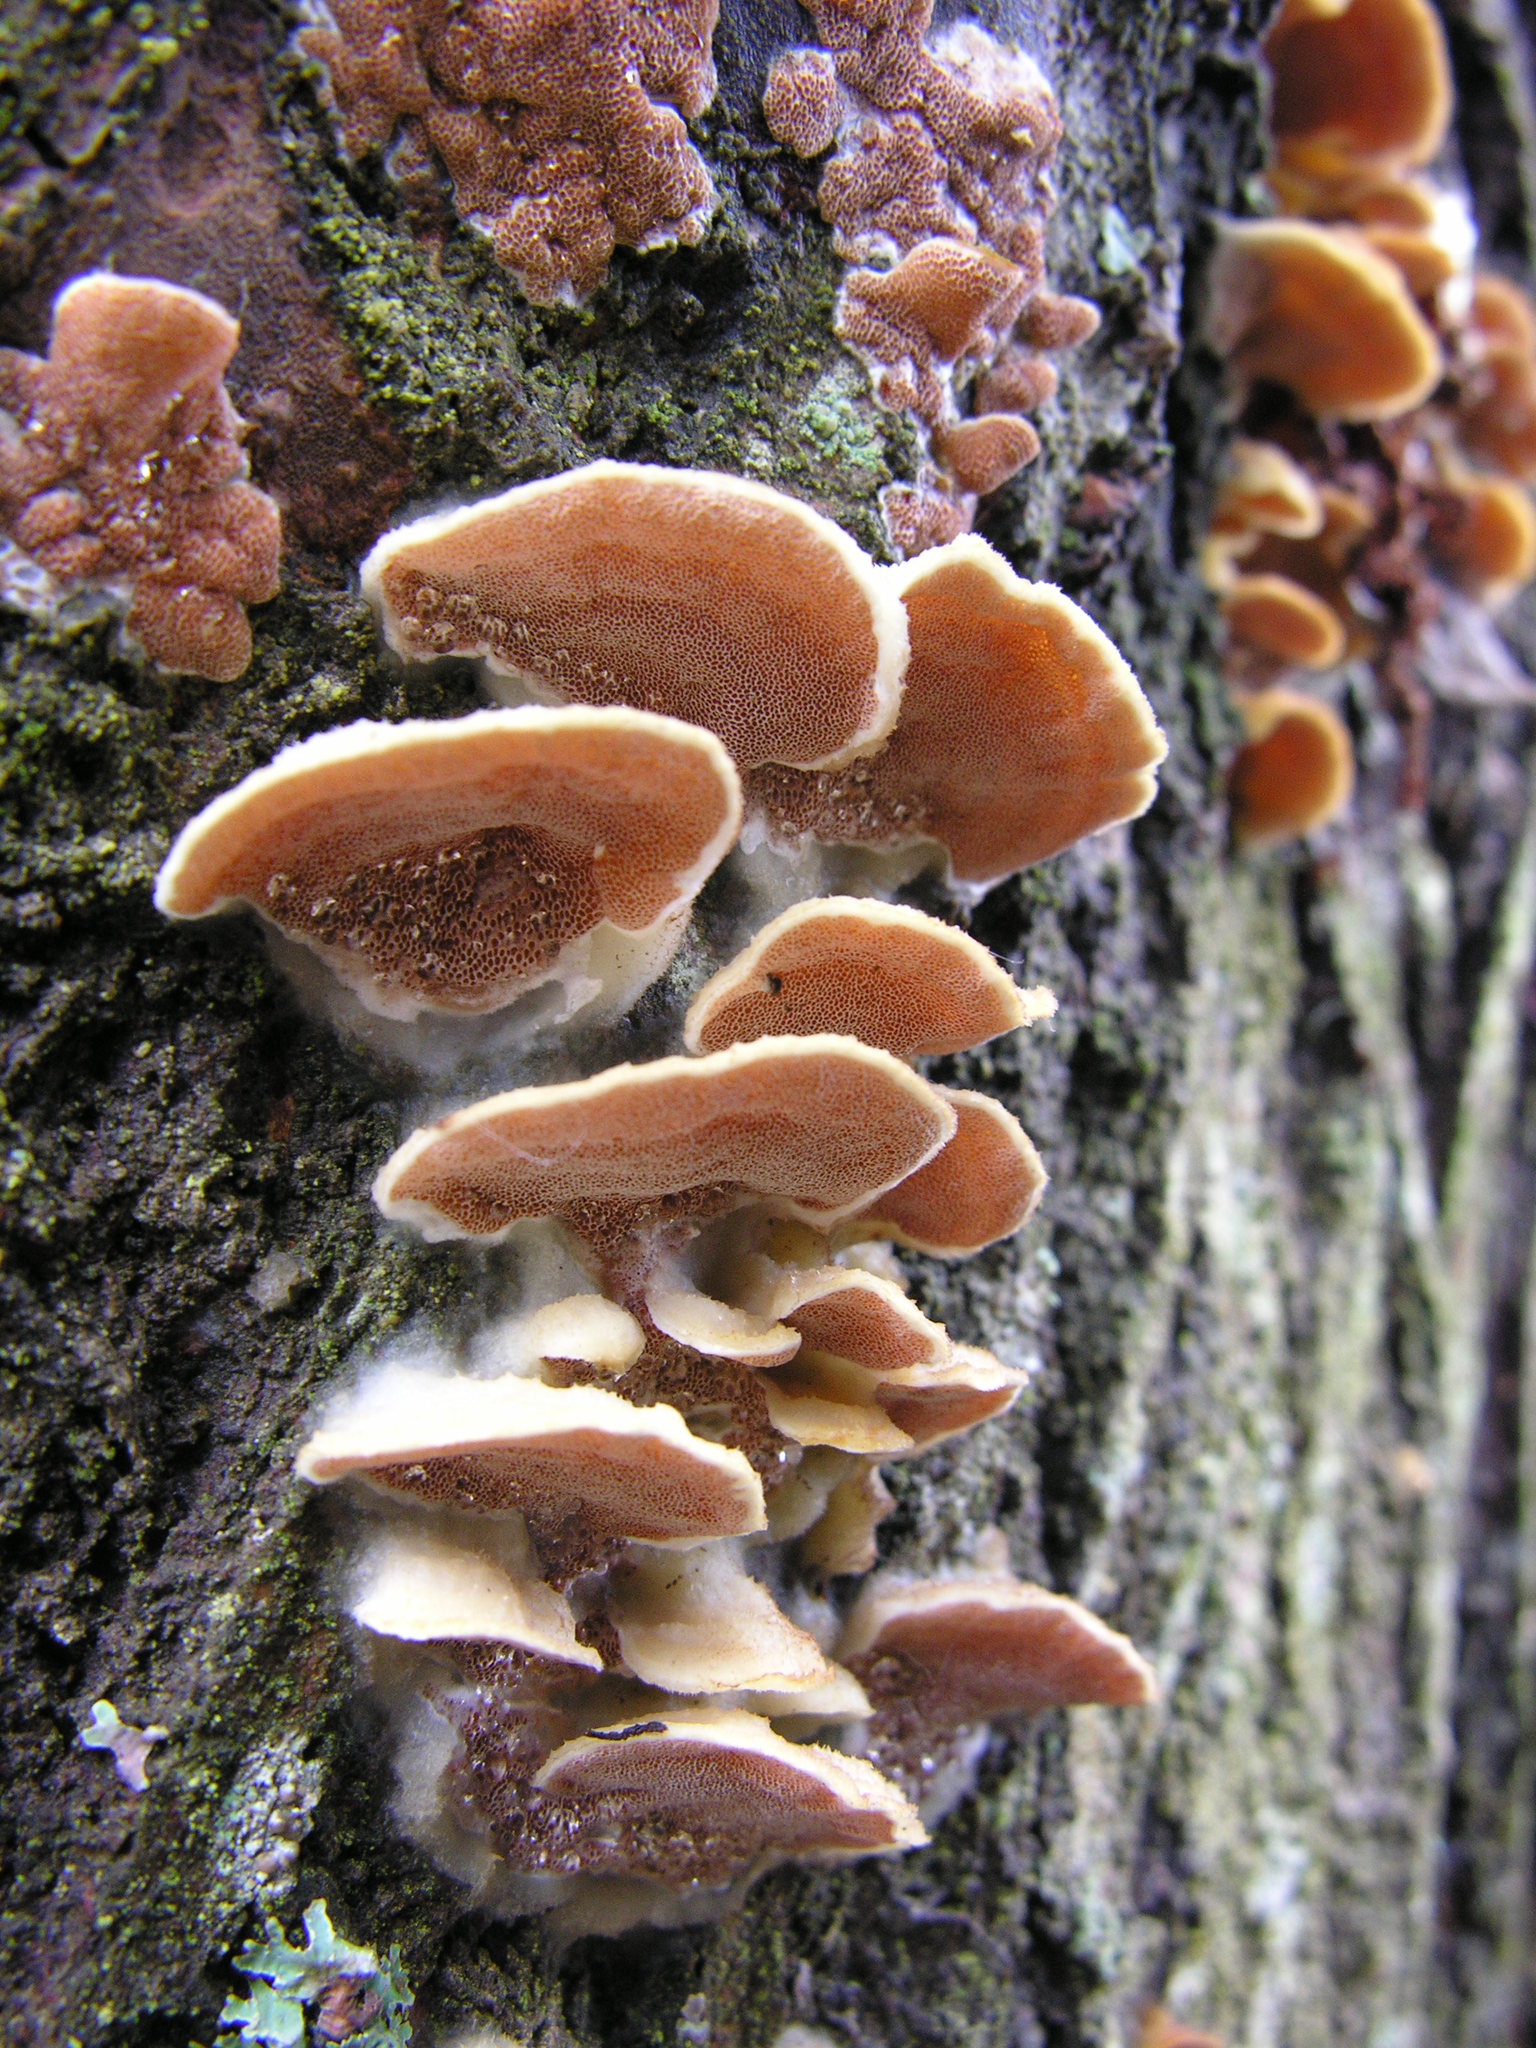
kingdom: Fungi
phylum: Basidiomycota
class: Agaricomycetes
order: Polyporales
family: Irpicaceae
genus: Vitreoporus
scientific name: Vitreoporus dichrous
